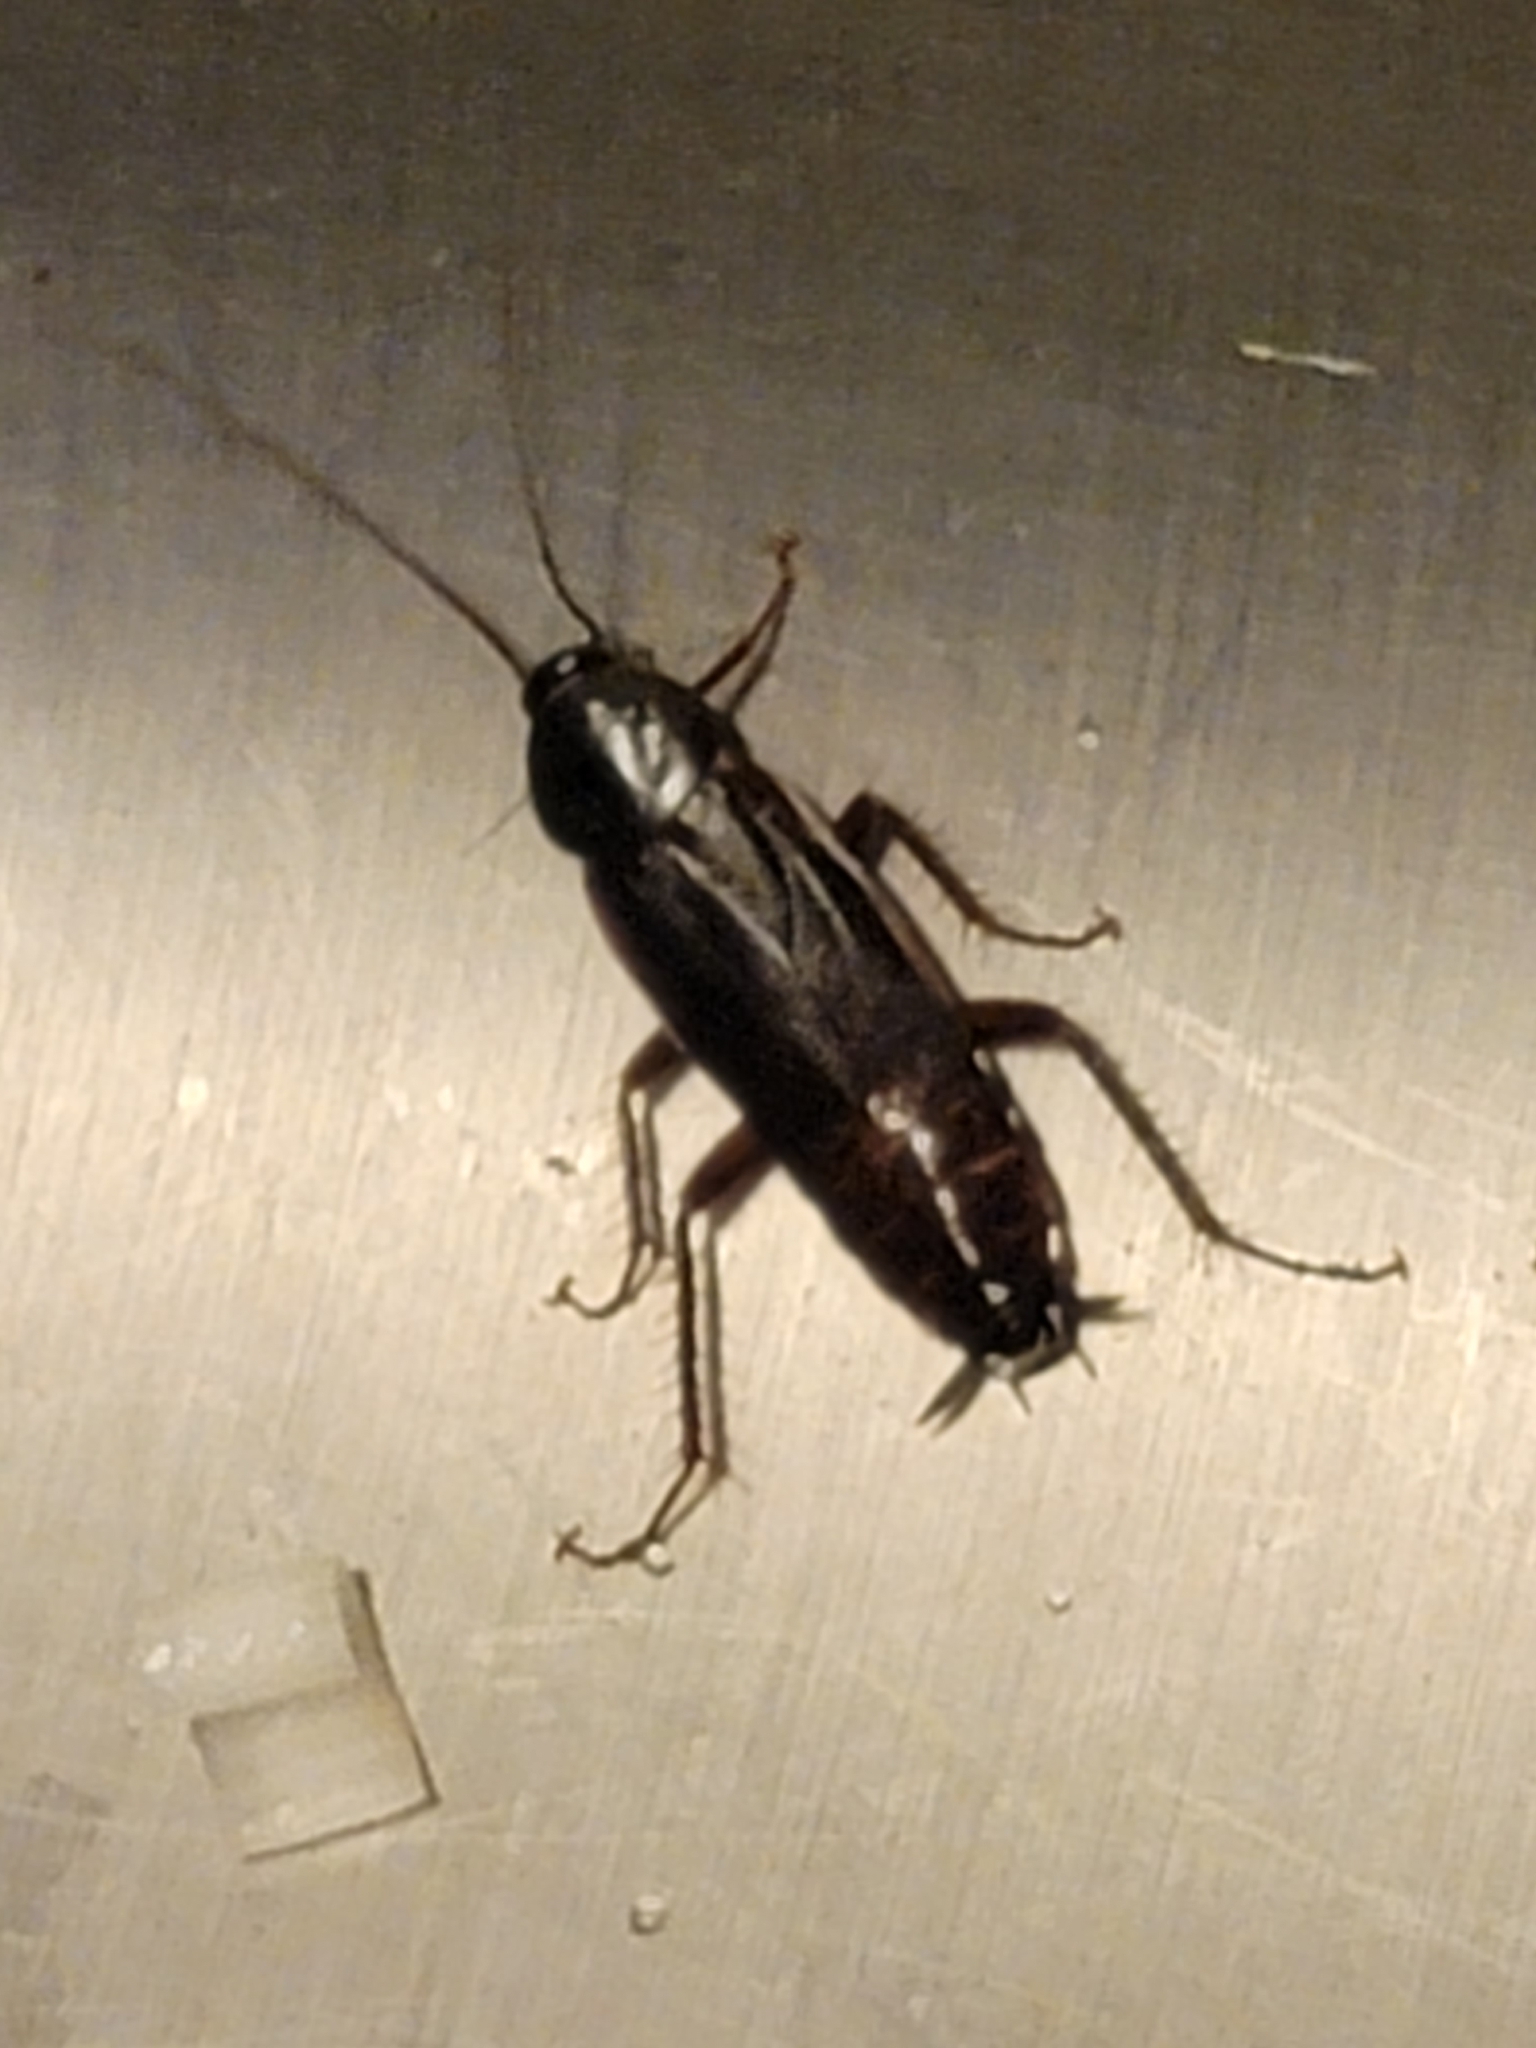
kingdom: Animalia
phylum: Arthropoda
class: Insecta
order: Blattodea
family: Blattidae
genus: Blatta
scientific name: Blatta orientalis
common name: Oriental cockroach
